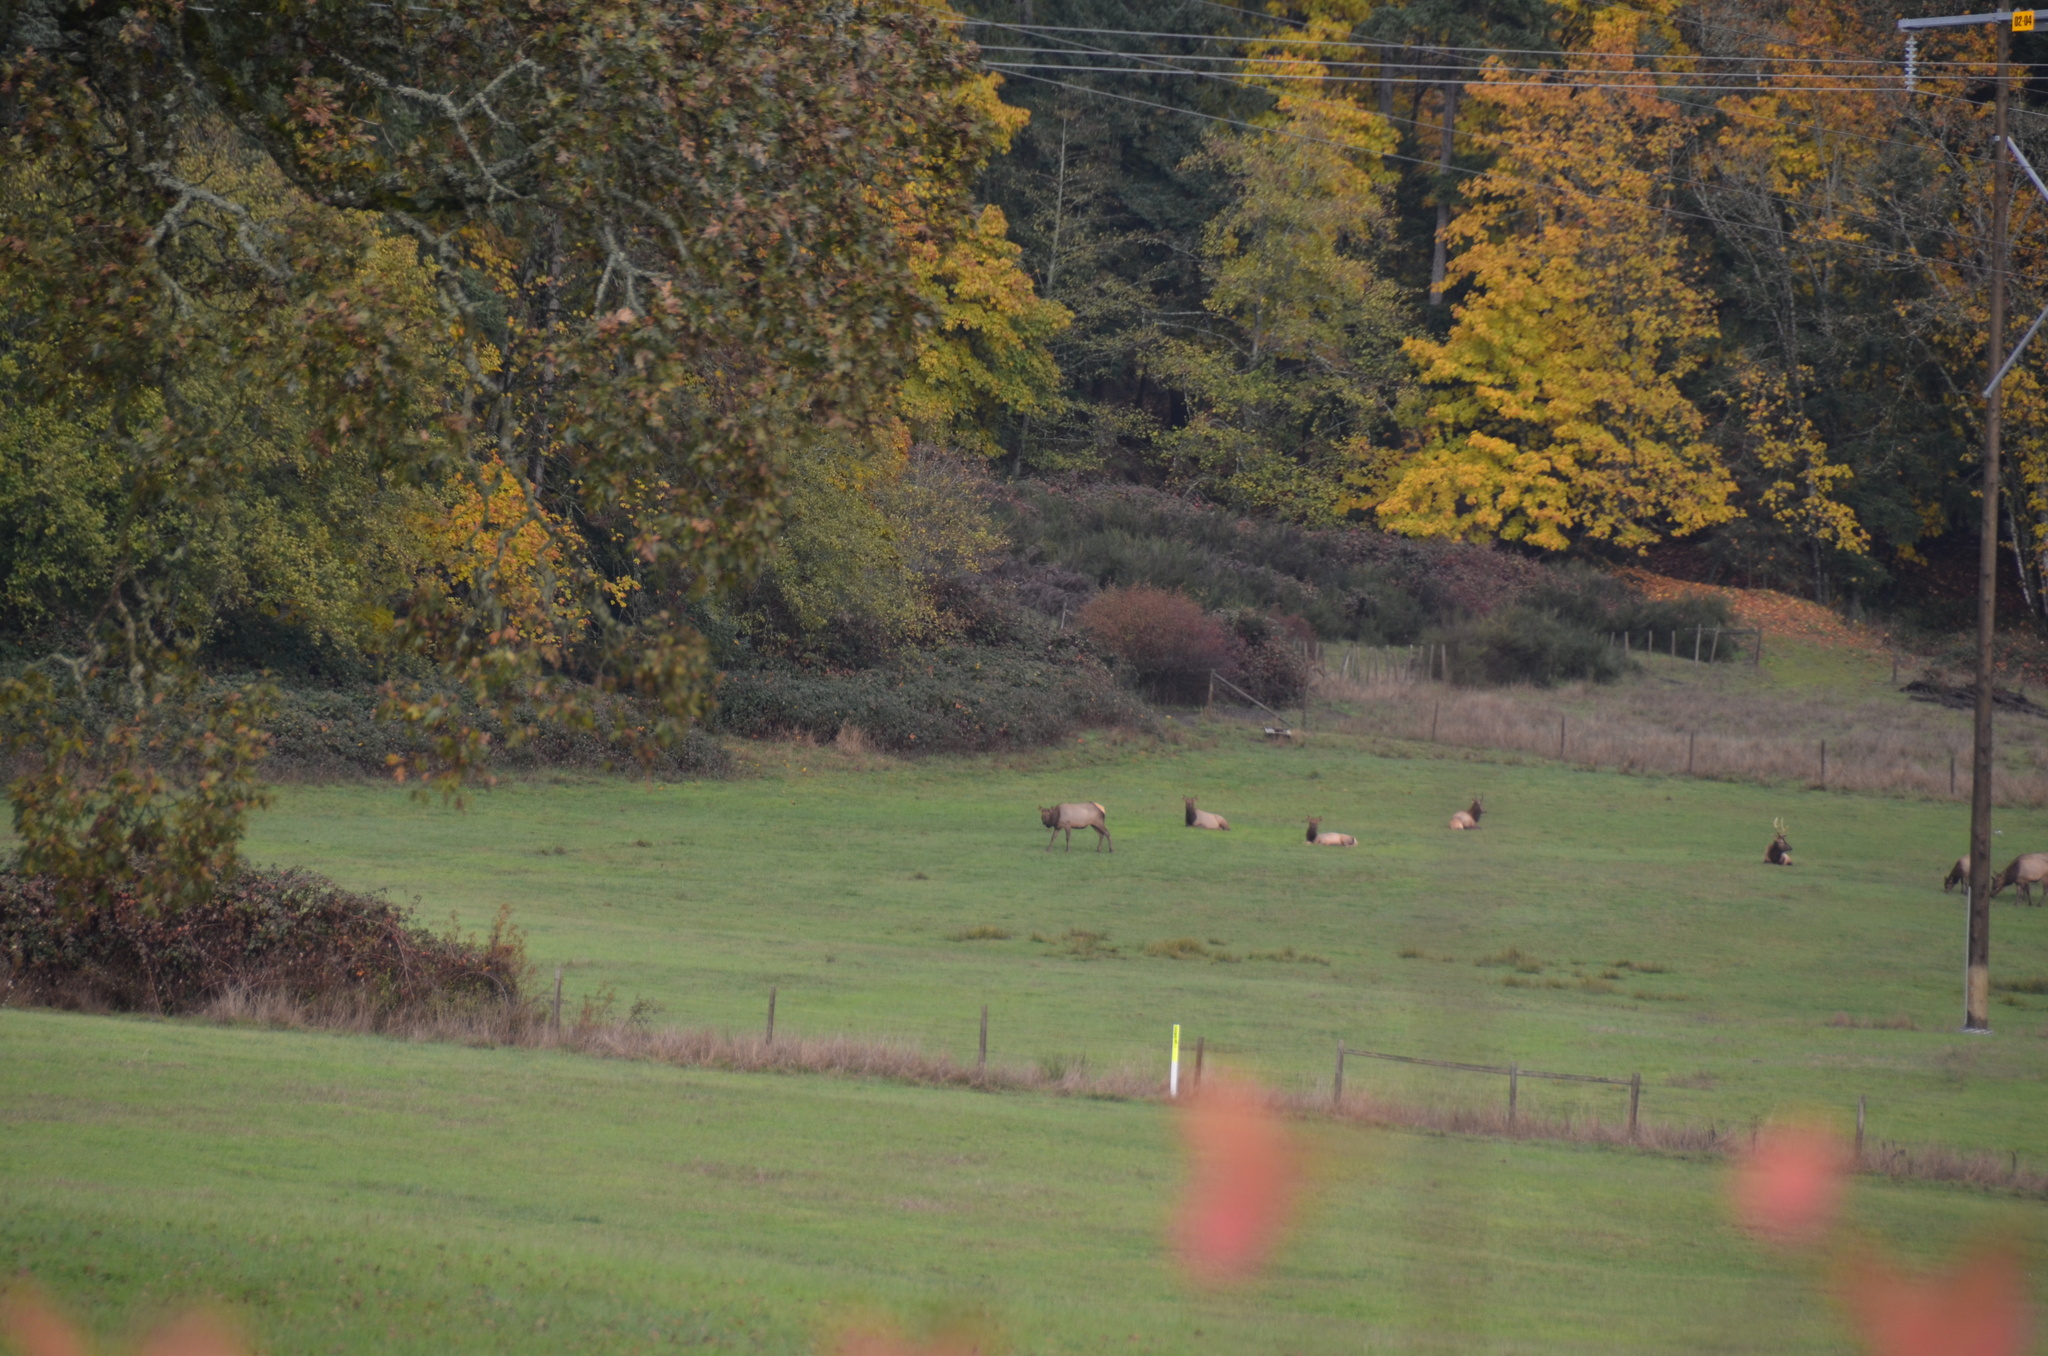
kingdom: Animalia
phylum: Chordata
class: Mammalia
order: Artiodactyla
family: Cervidae
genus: Cervus
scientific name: Cervus elaphus
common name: Red deer
